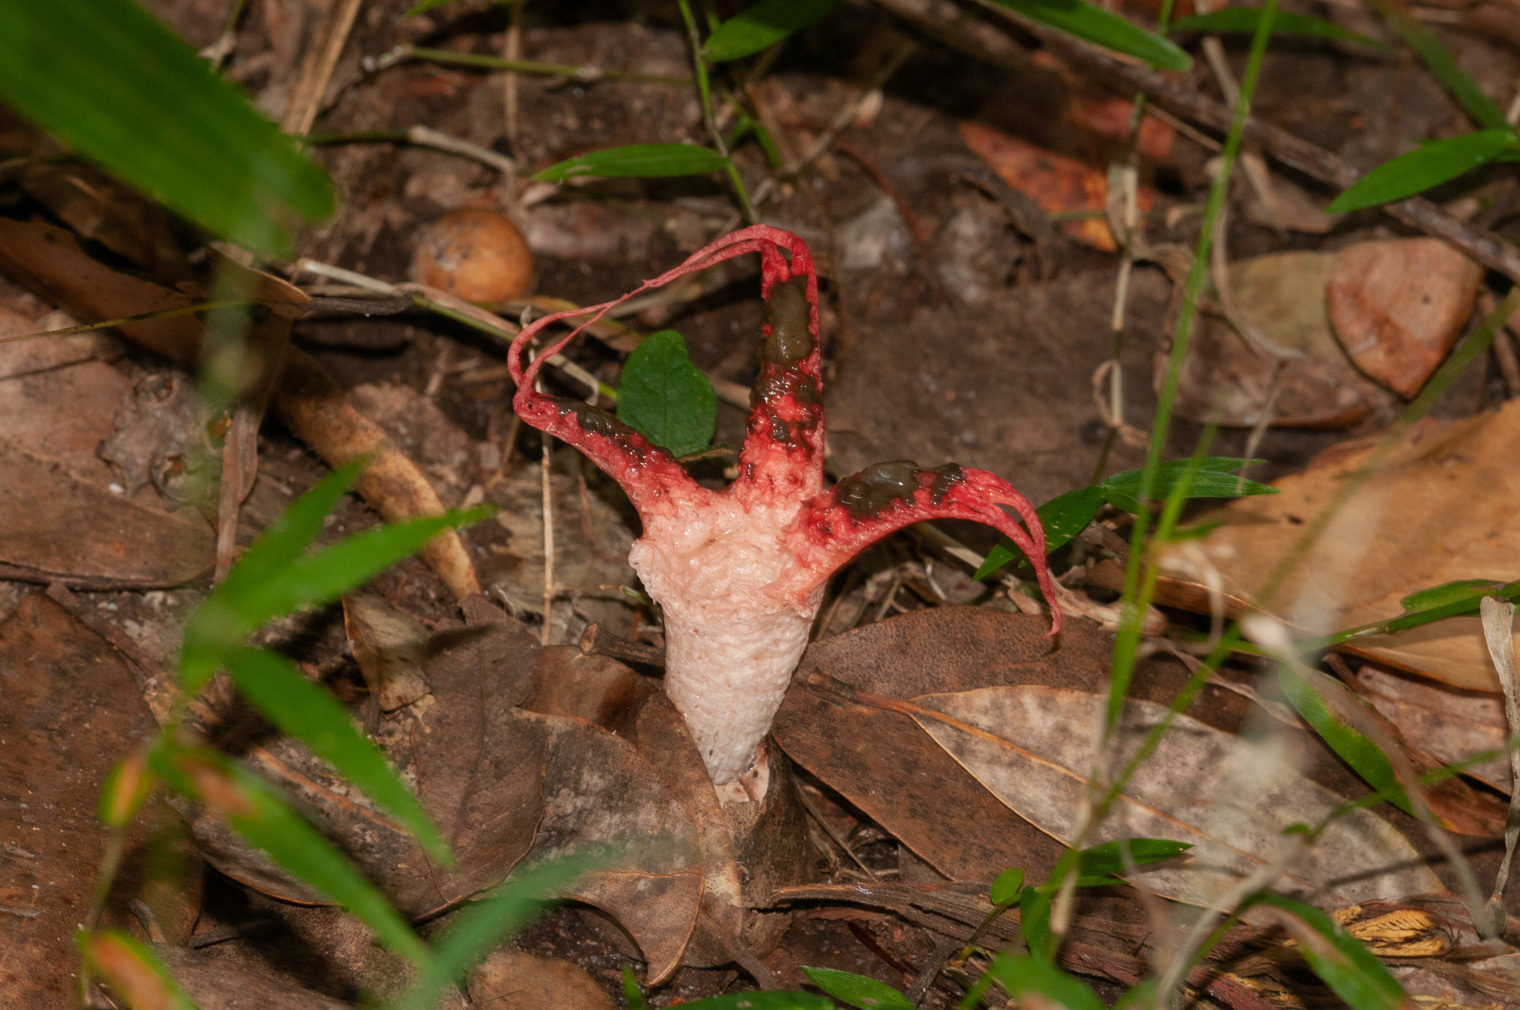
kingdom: Fungi
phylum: Basidiomycota
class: Agaricomycetes
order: Phallales
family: Phallaceae
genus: Clathrus
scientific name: Clathrus archeri
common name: Devil's fingers
